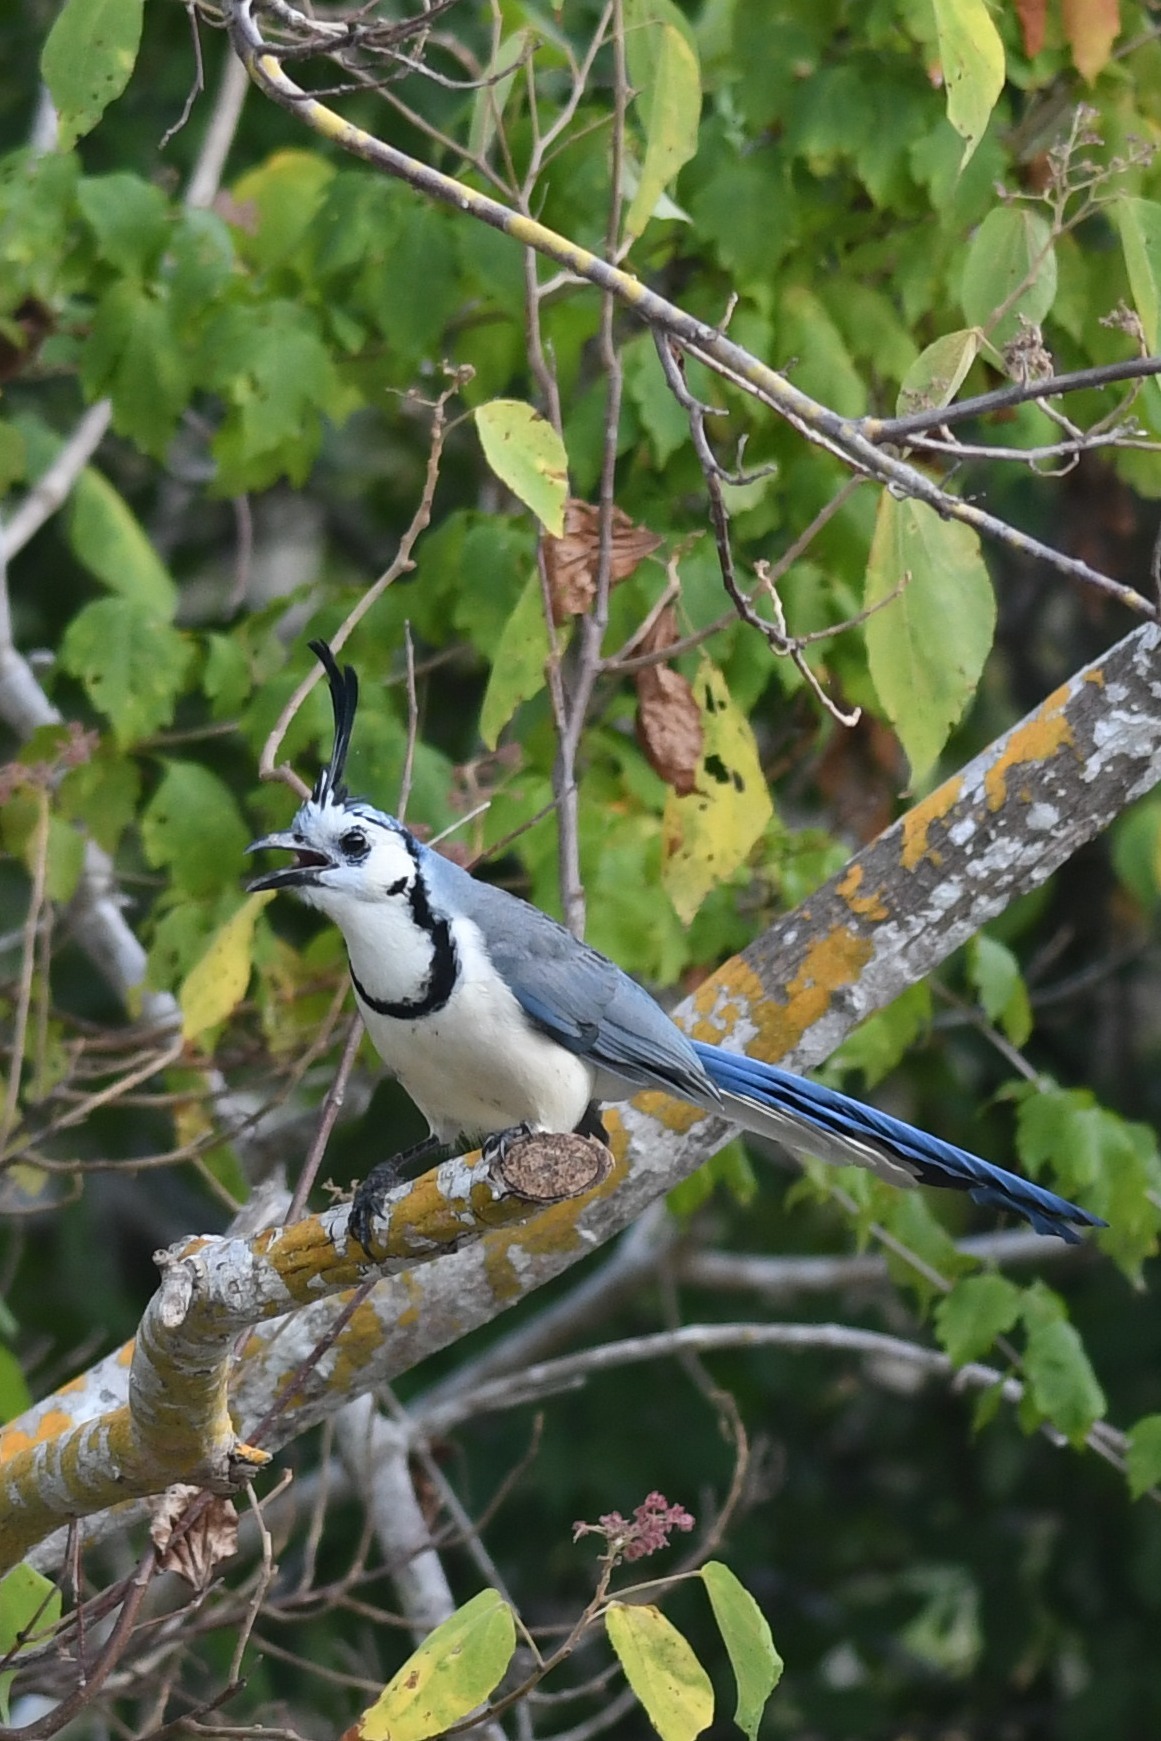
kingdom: Animalia
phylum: Chordata
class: Aves
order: Passeriformes
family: Corvidae
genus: Calocitta
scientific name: Calocitta formosa
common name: White-throated magpie-jay
